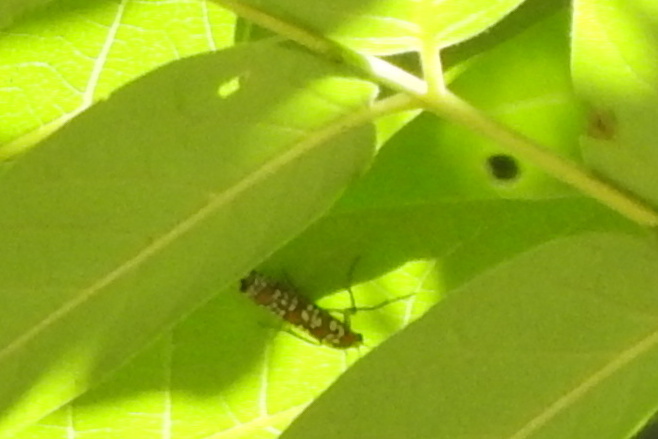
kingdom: Animalia
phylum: Arthropoda
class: Insecta
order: Lepidoptera
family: Attevidae
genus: Atteva
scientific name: Atteva punctella
